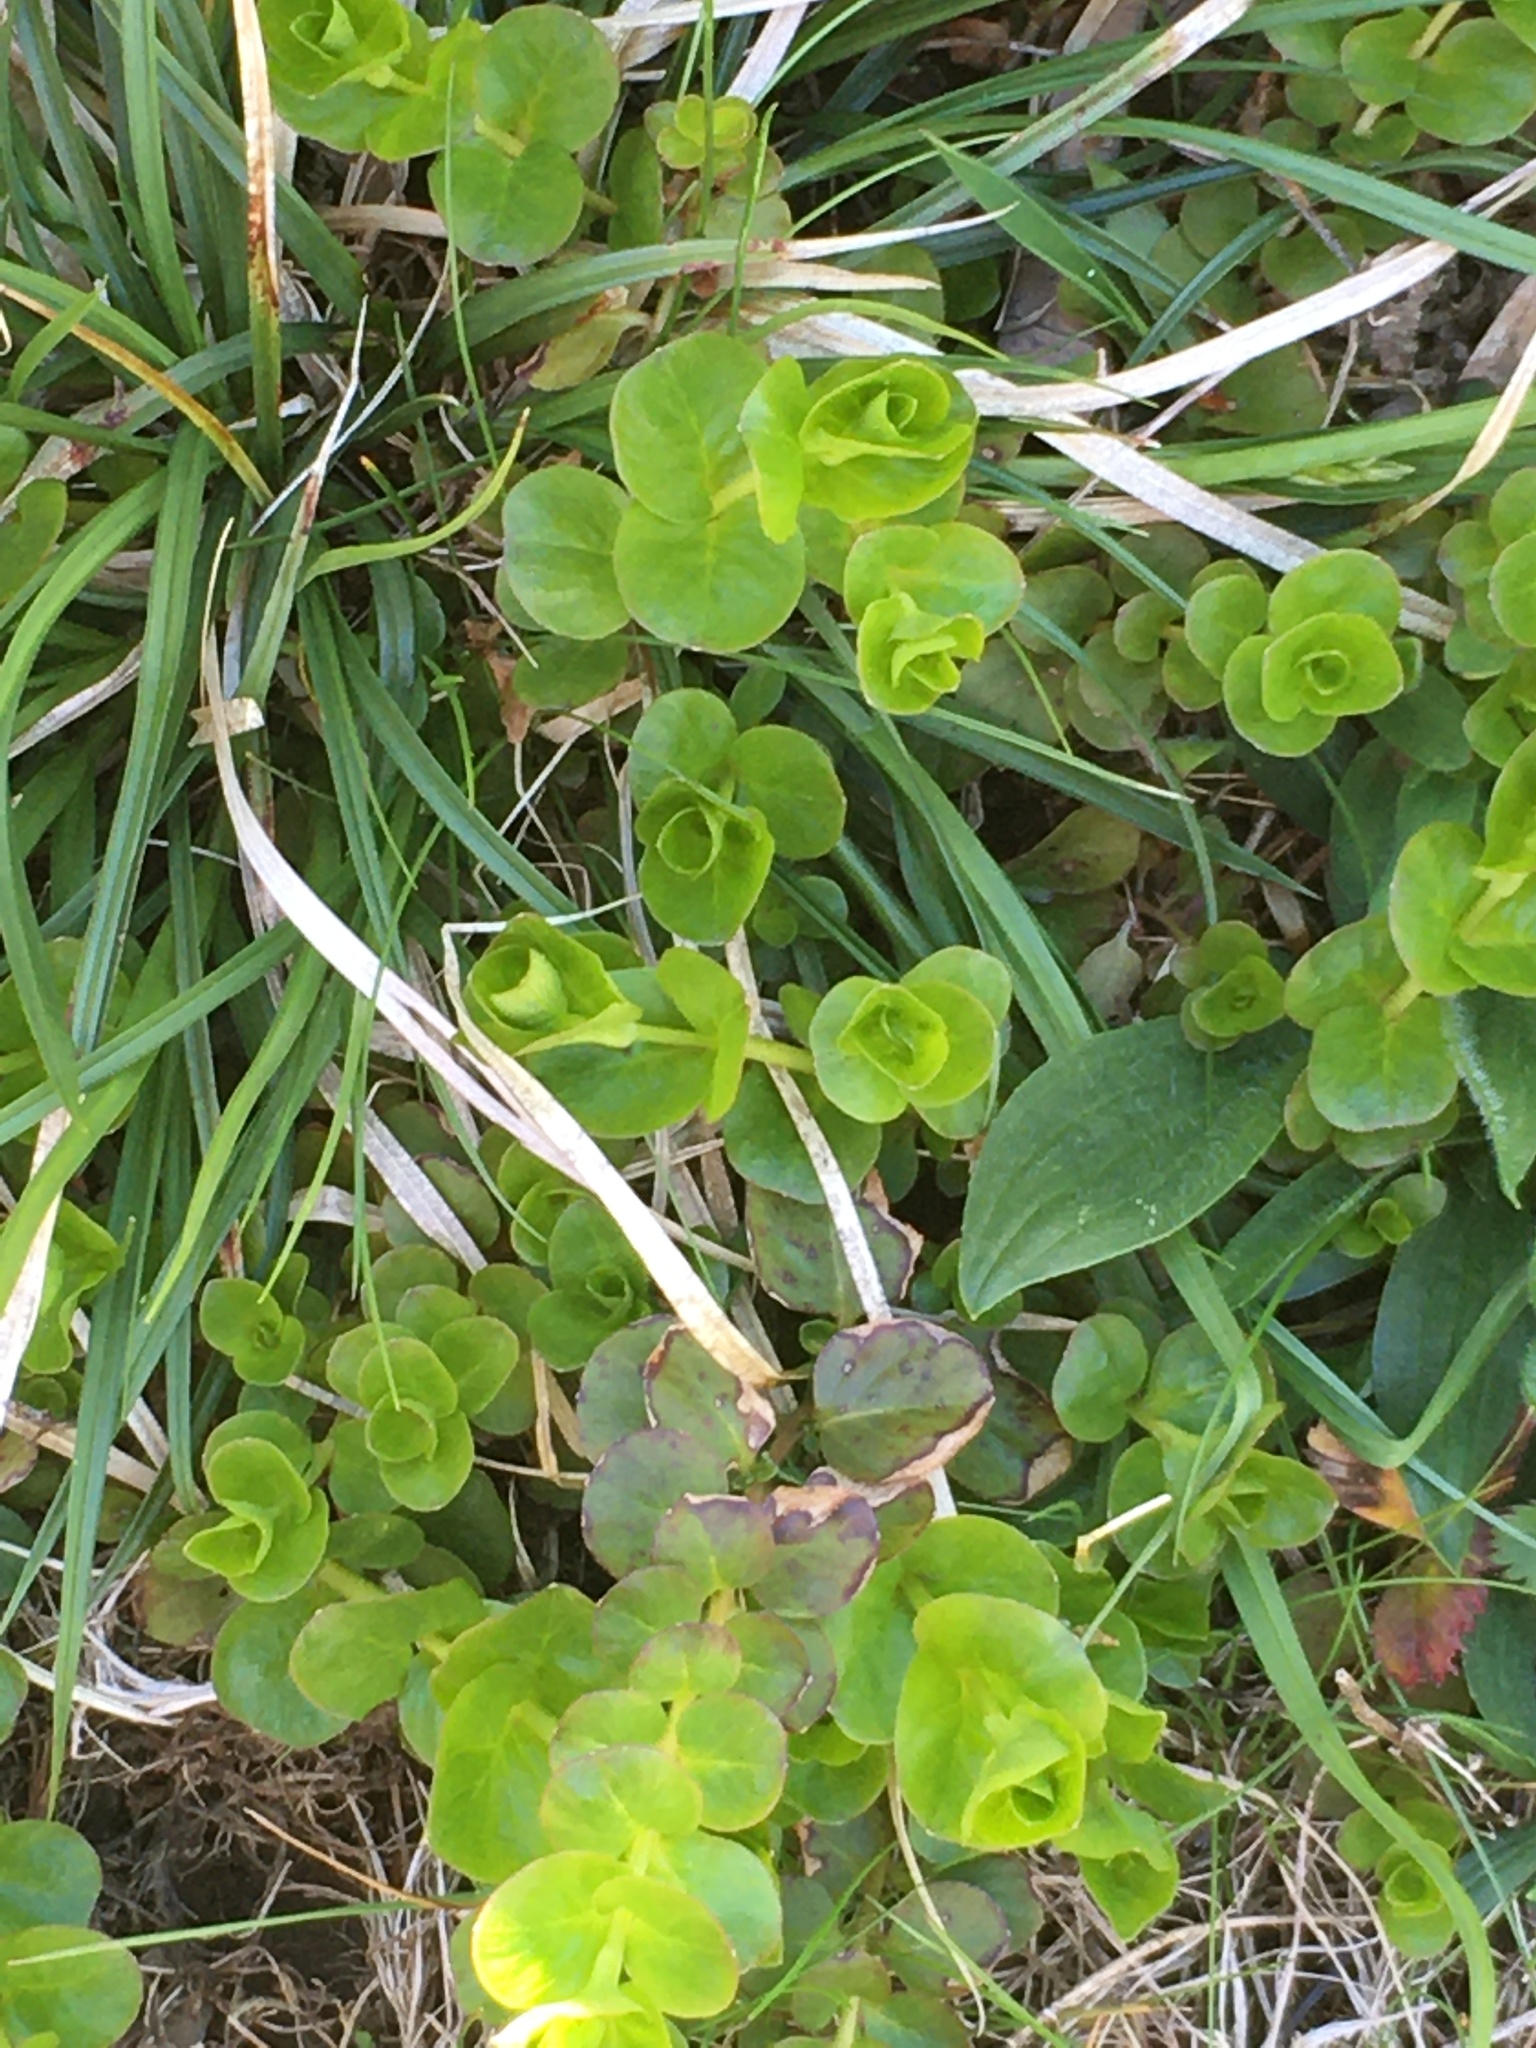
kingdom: Plantae
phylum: Tracheophyta
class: Magnoliopsida
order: Ericales
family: Primulaceae
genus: Lysimachia
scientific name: Lysimachia nummularia
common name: Moneywort
